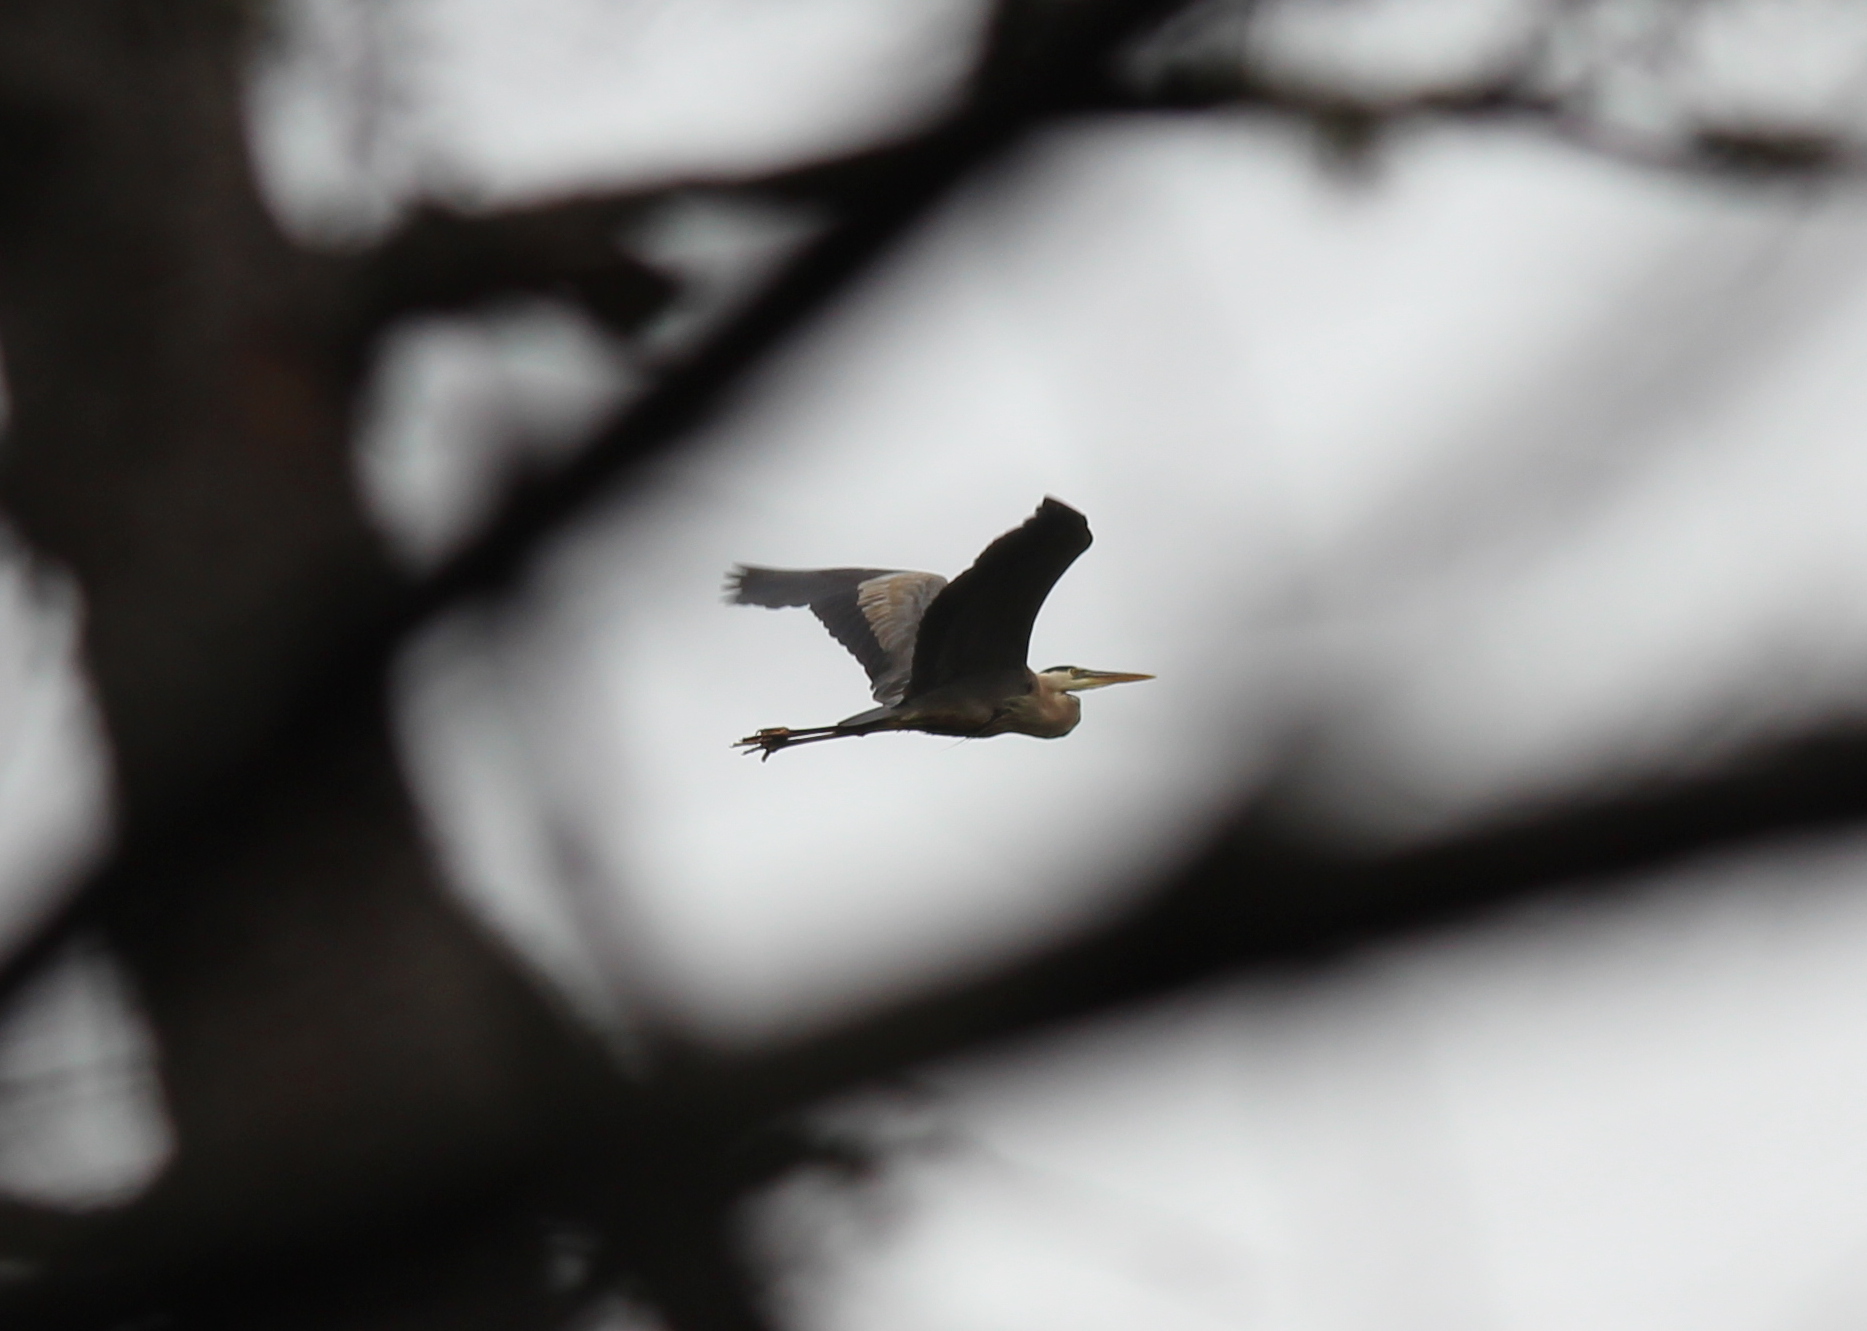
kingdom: Animalia
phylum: Chordata
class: Aves
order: Pelecaniformes
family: Ardeidae
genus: Ardea
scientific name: Ardea herodias
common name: Great blue heron
